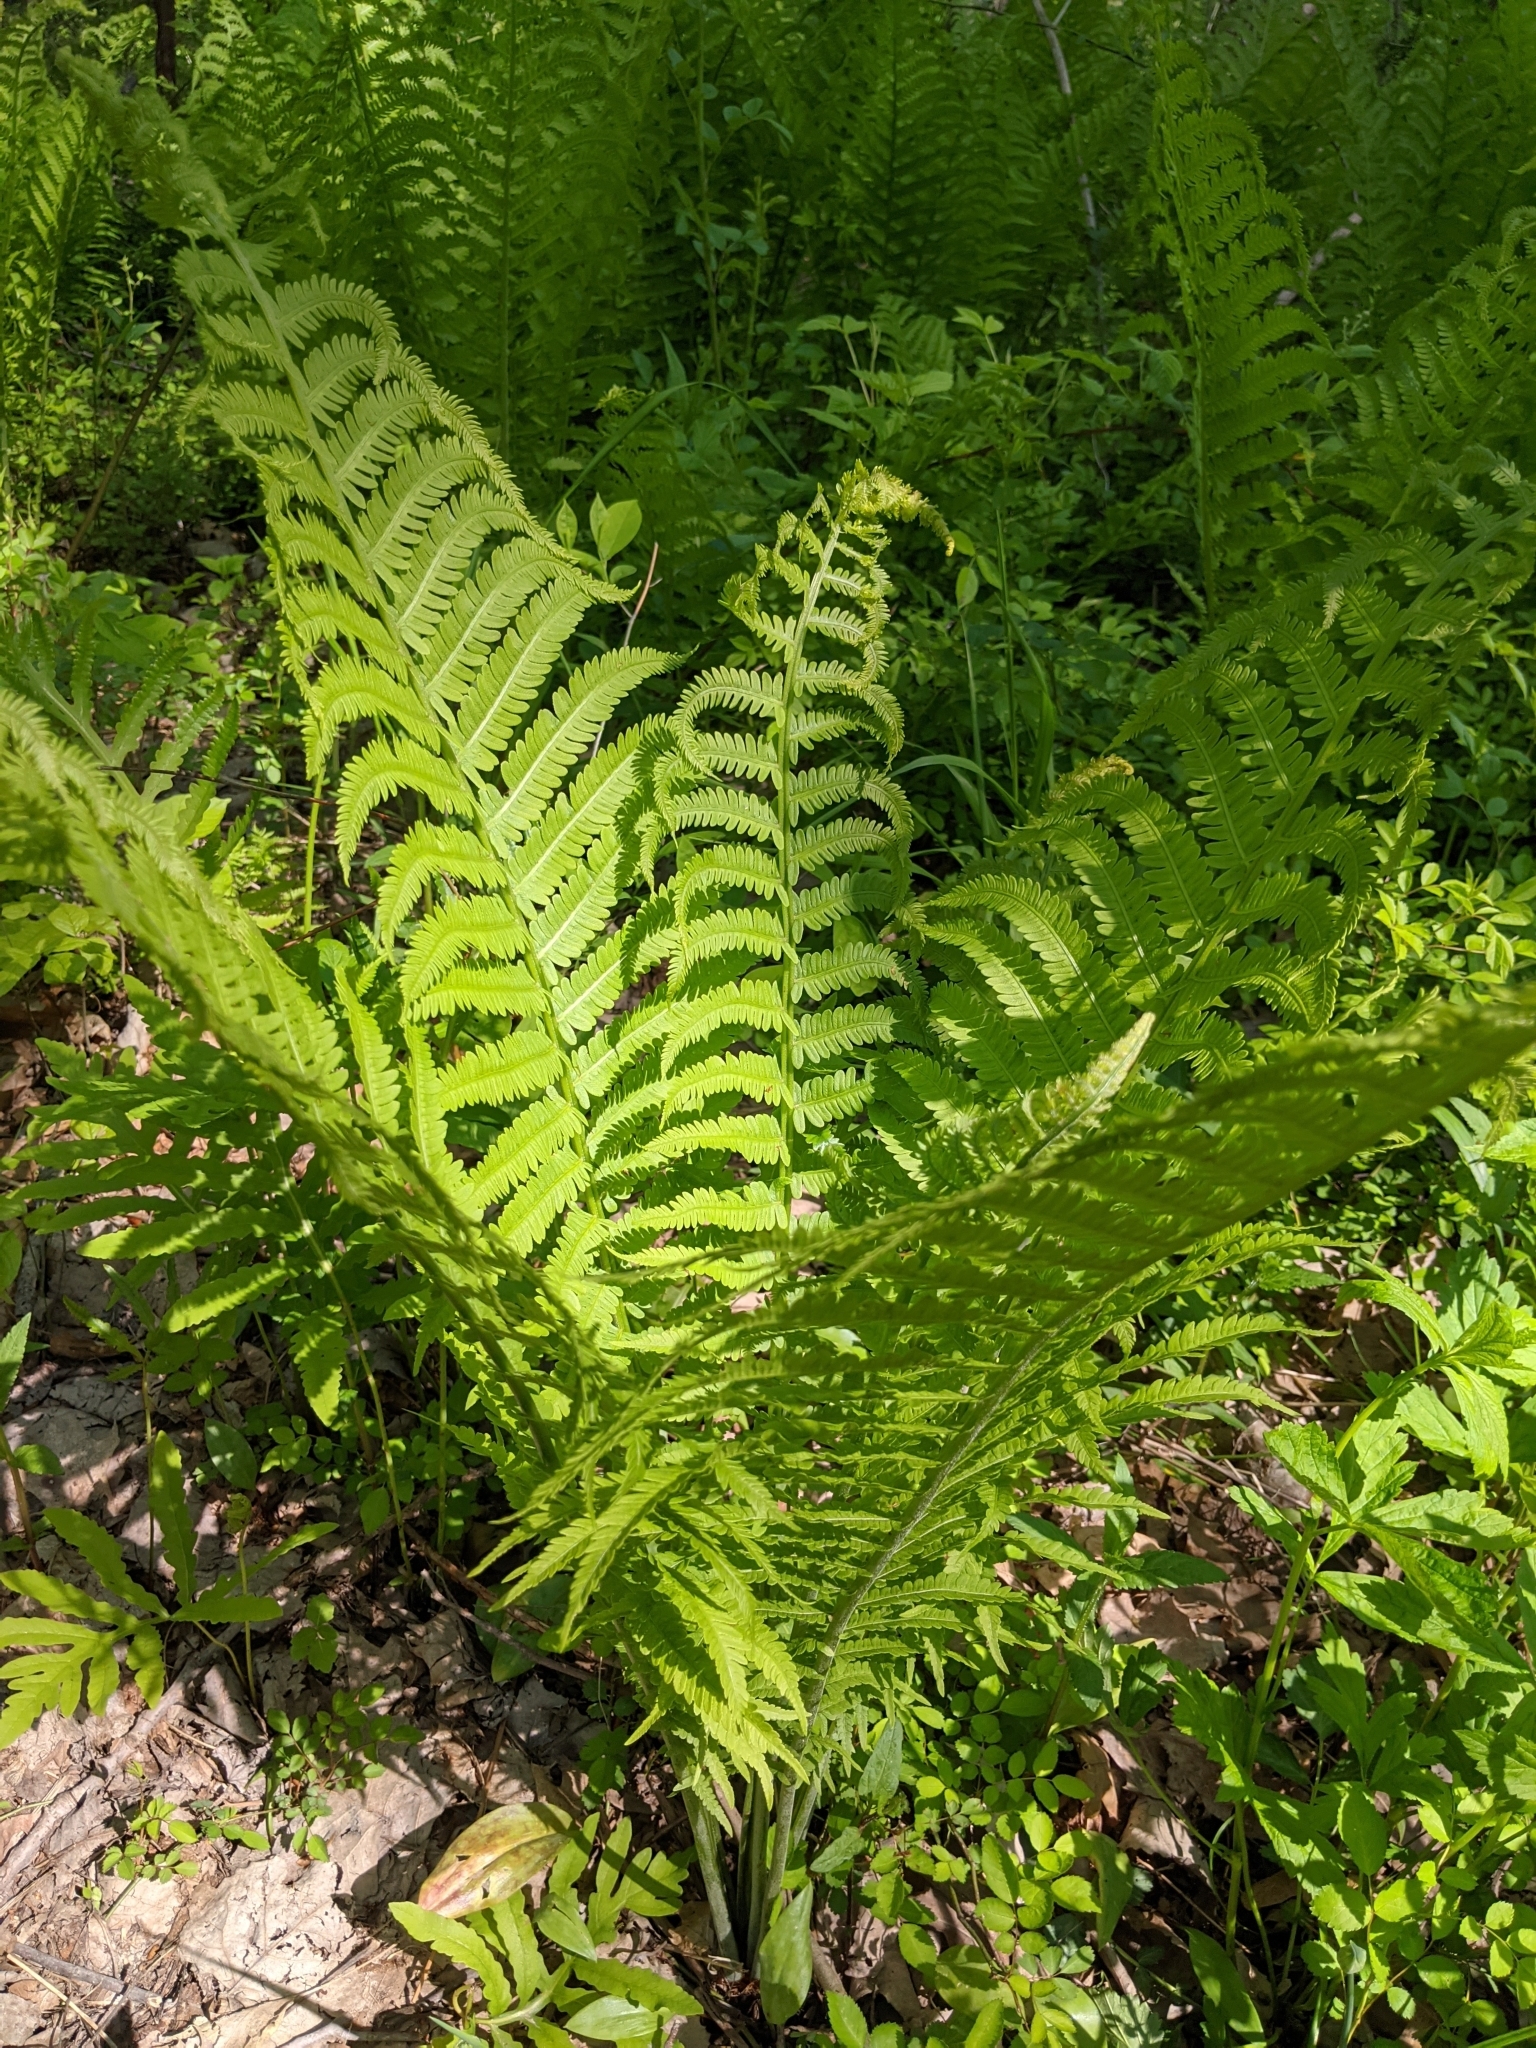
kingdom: Plantae
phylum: Tracheophyta
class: Polypodiopsida
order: Polypodiales
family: Onocleaceae
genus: Matteuccia
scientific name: Matteuccia struthiopteris
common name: Ostrich fern
